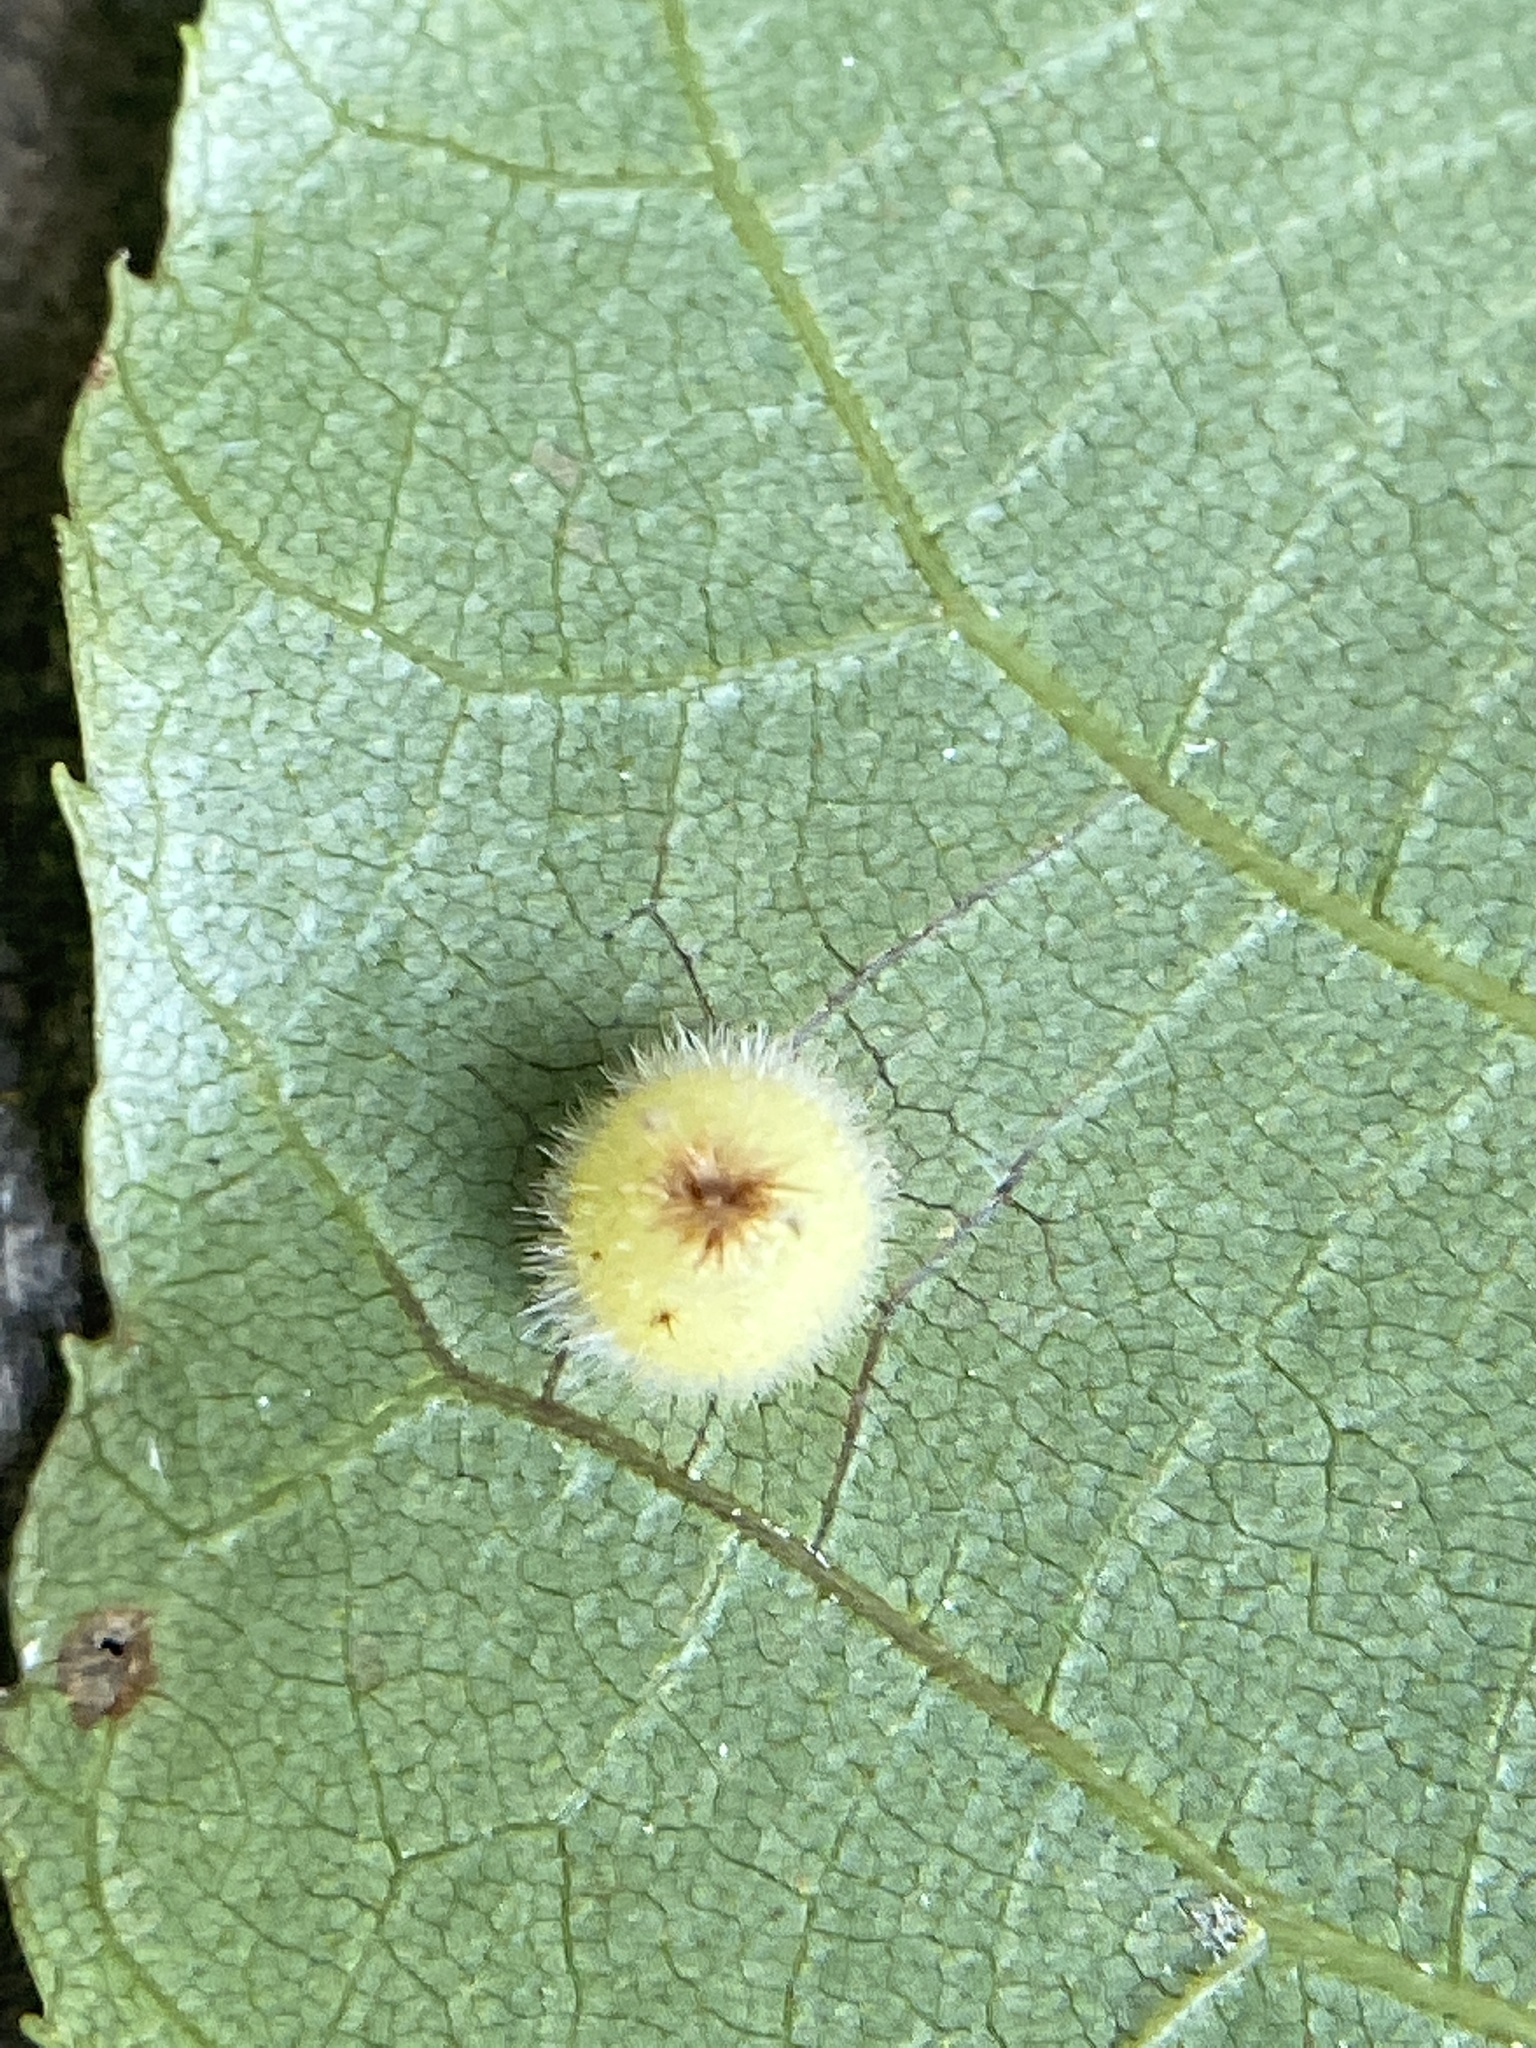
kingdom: Animalia
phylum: Arthropoda
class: Insecta
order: Diptera
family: Cecidomyiidae
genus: Caryomyia
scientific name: Caryomyia hirtidolium
